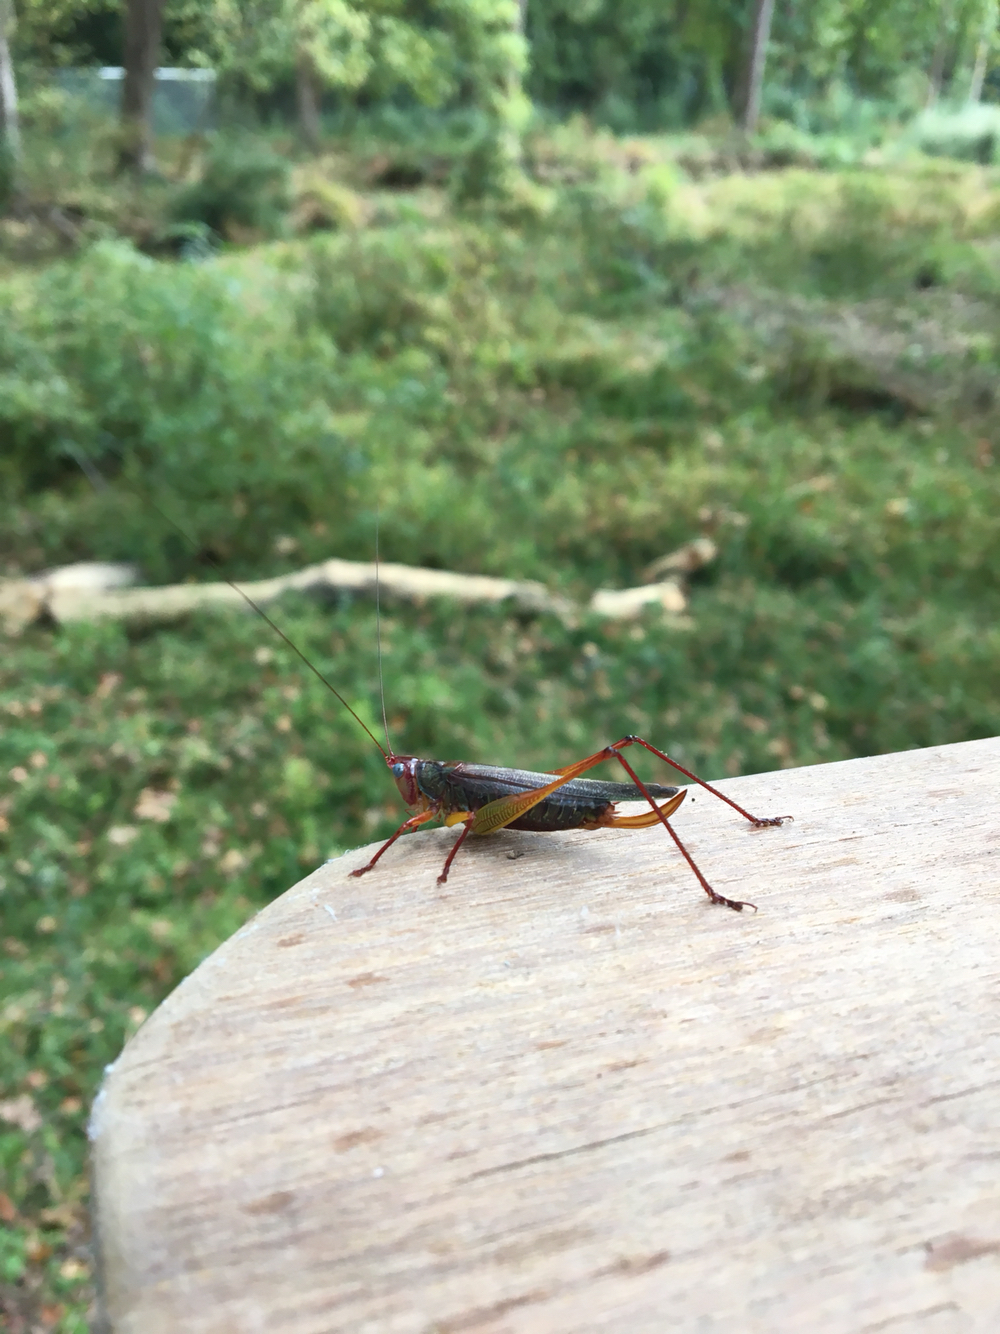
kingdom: Animalia
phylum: Arthropoda
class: Insecta
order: Orthoptera
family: Tettigoniidae
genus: Orchelimum
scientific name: Orchelimum pulchellum
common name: Handsome meadow katydid
